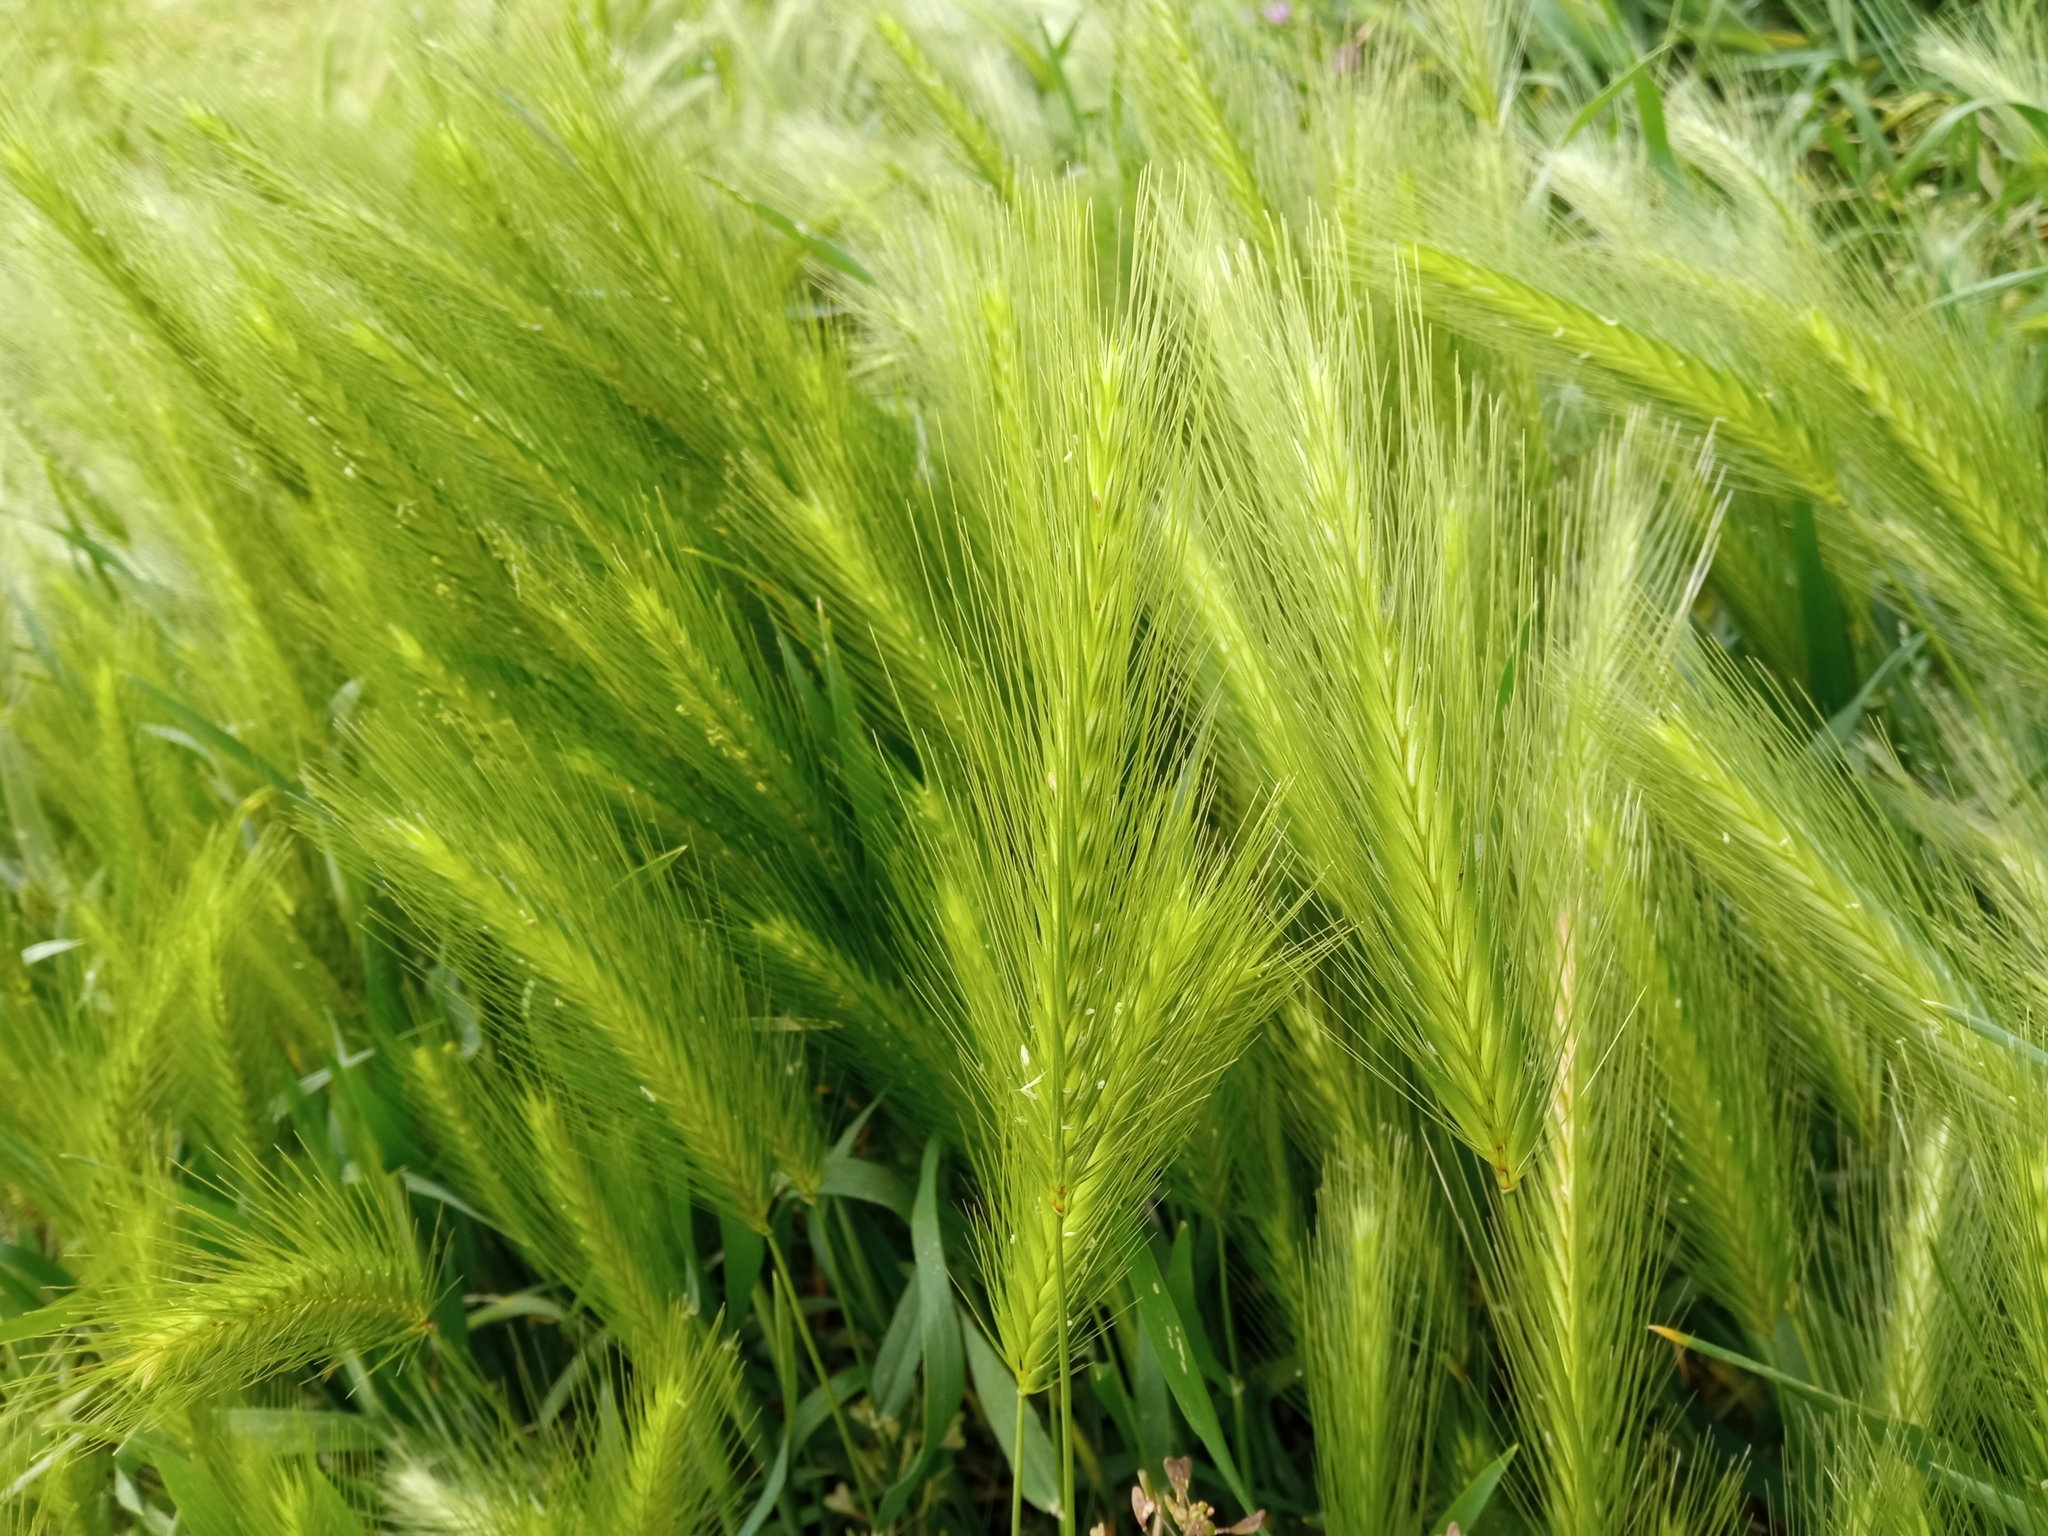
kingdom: Plantae
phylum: Tracheophyta
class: Liliopsida
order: Poales
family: Poaceae
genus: Hordeum
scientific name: Hordeum murinum
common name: Wall barley
